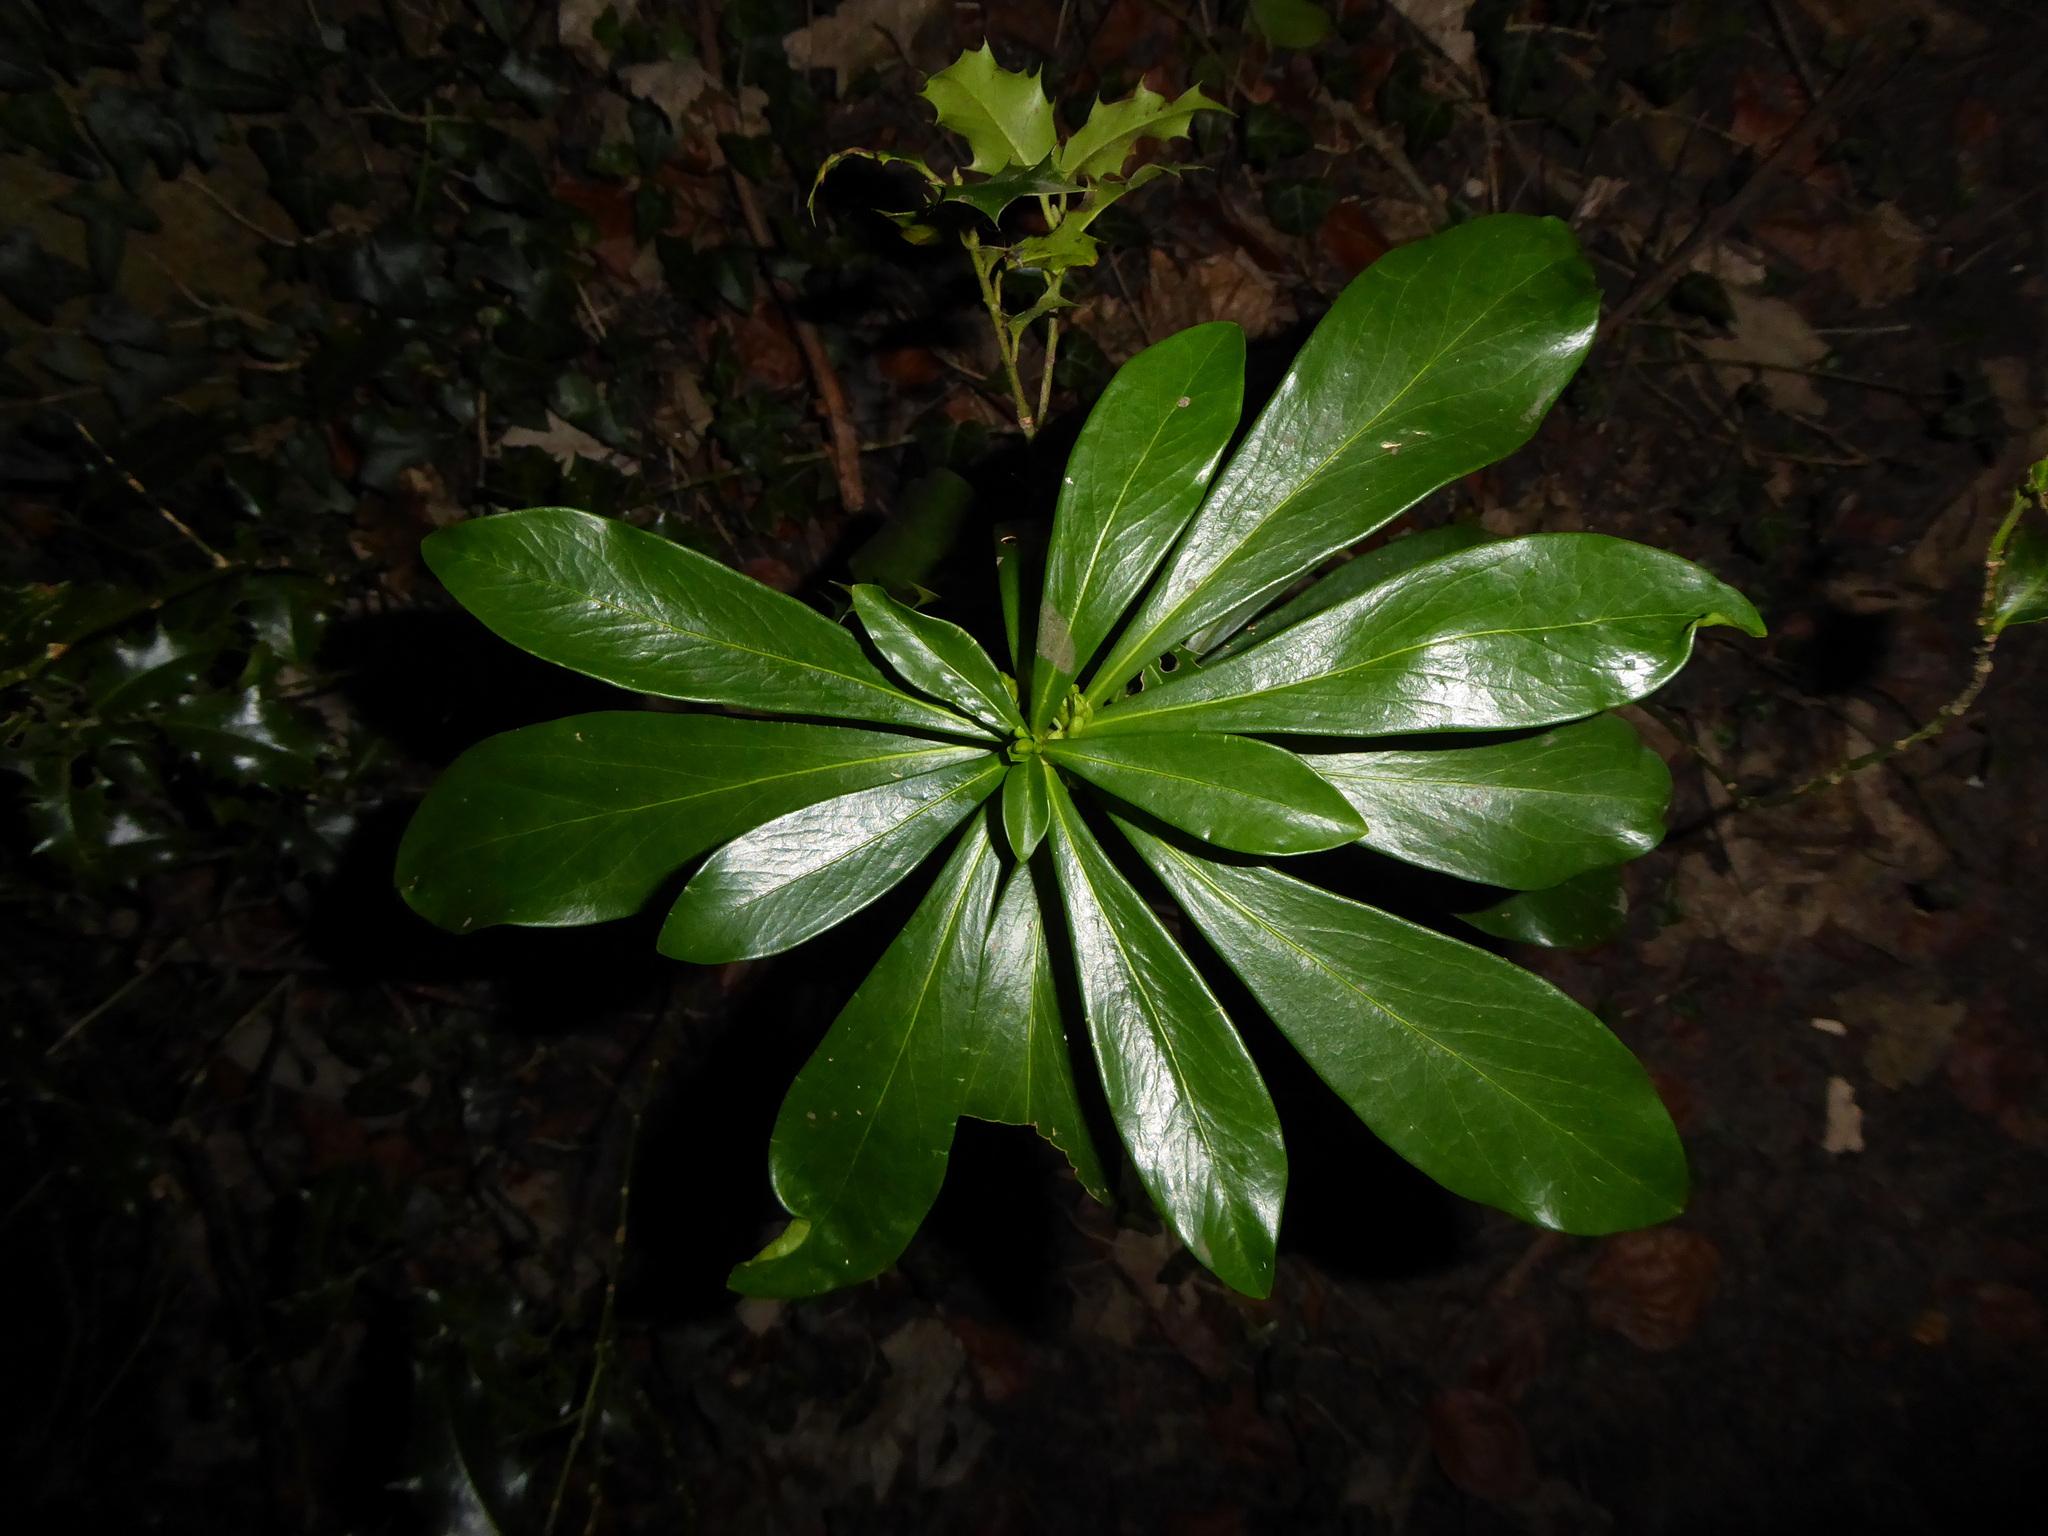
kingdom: Plantae
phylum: Tracheophyta
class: Magnoliopsida
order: Malvales
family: Thymelaeaceae
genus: Daphne
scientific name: Daphne laureola
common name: Spurge-laurel
